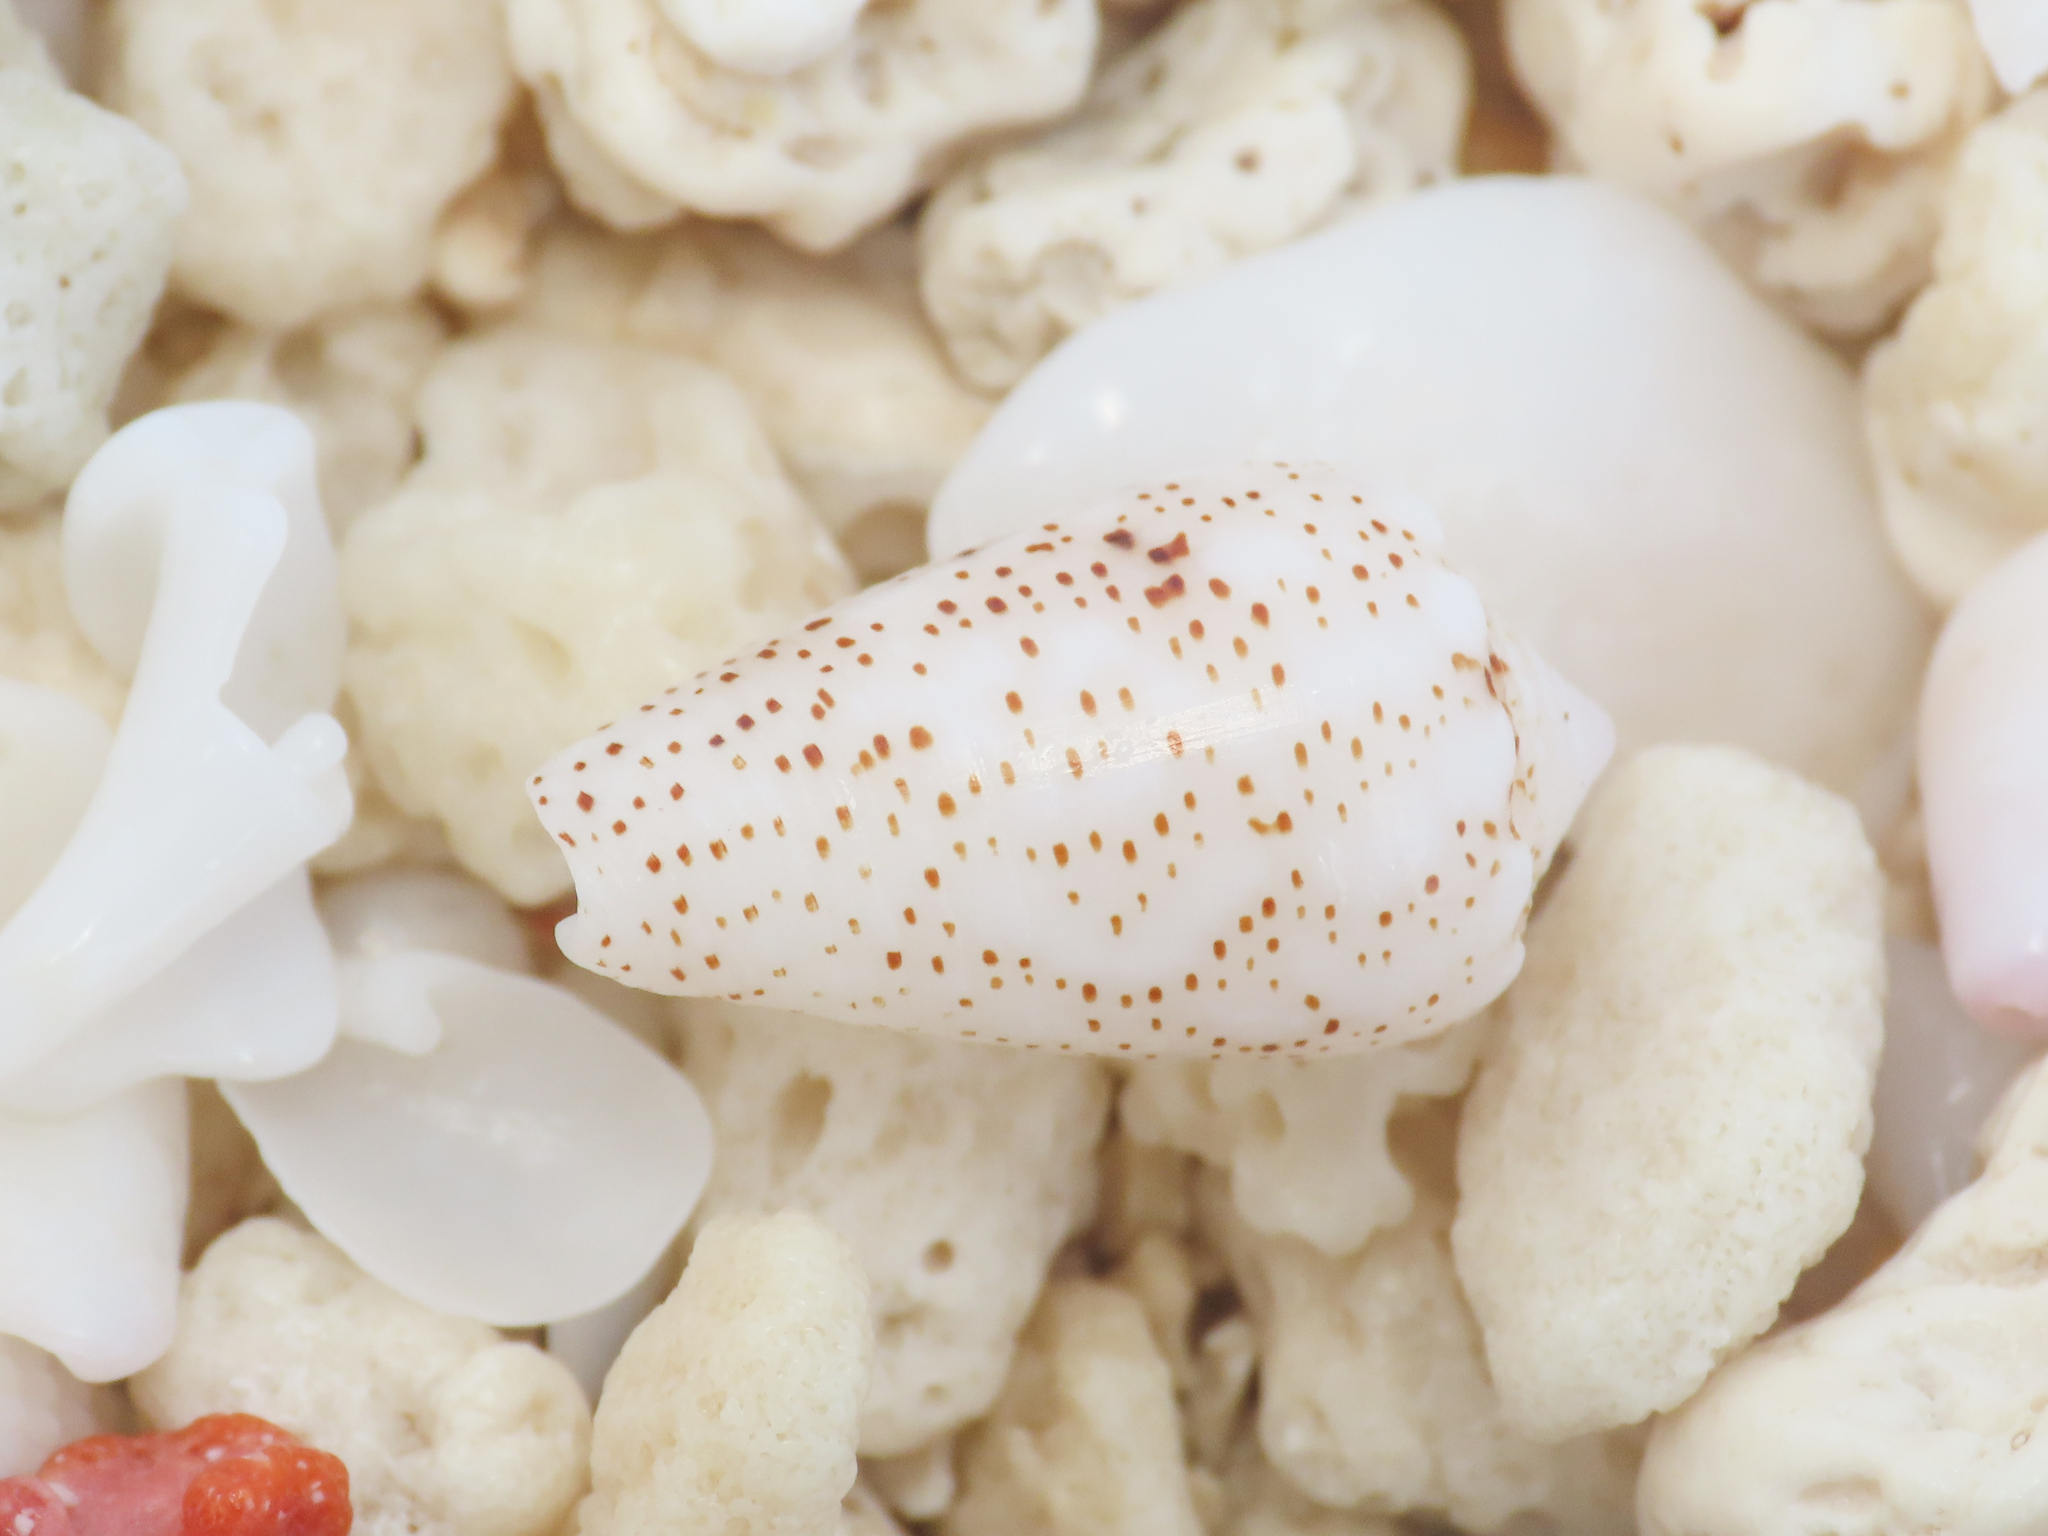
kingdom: Animalia
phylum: Mollusca
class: Gastropoda
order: Neogastropoda
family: Conidae
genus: Conus
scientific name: Conus arenatus
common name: Sand-dusted cone
